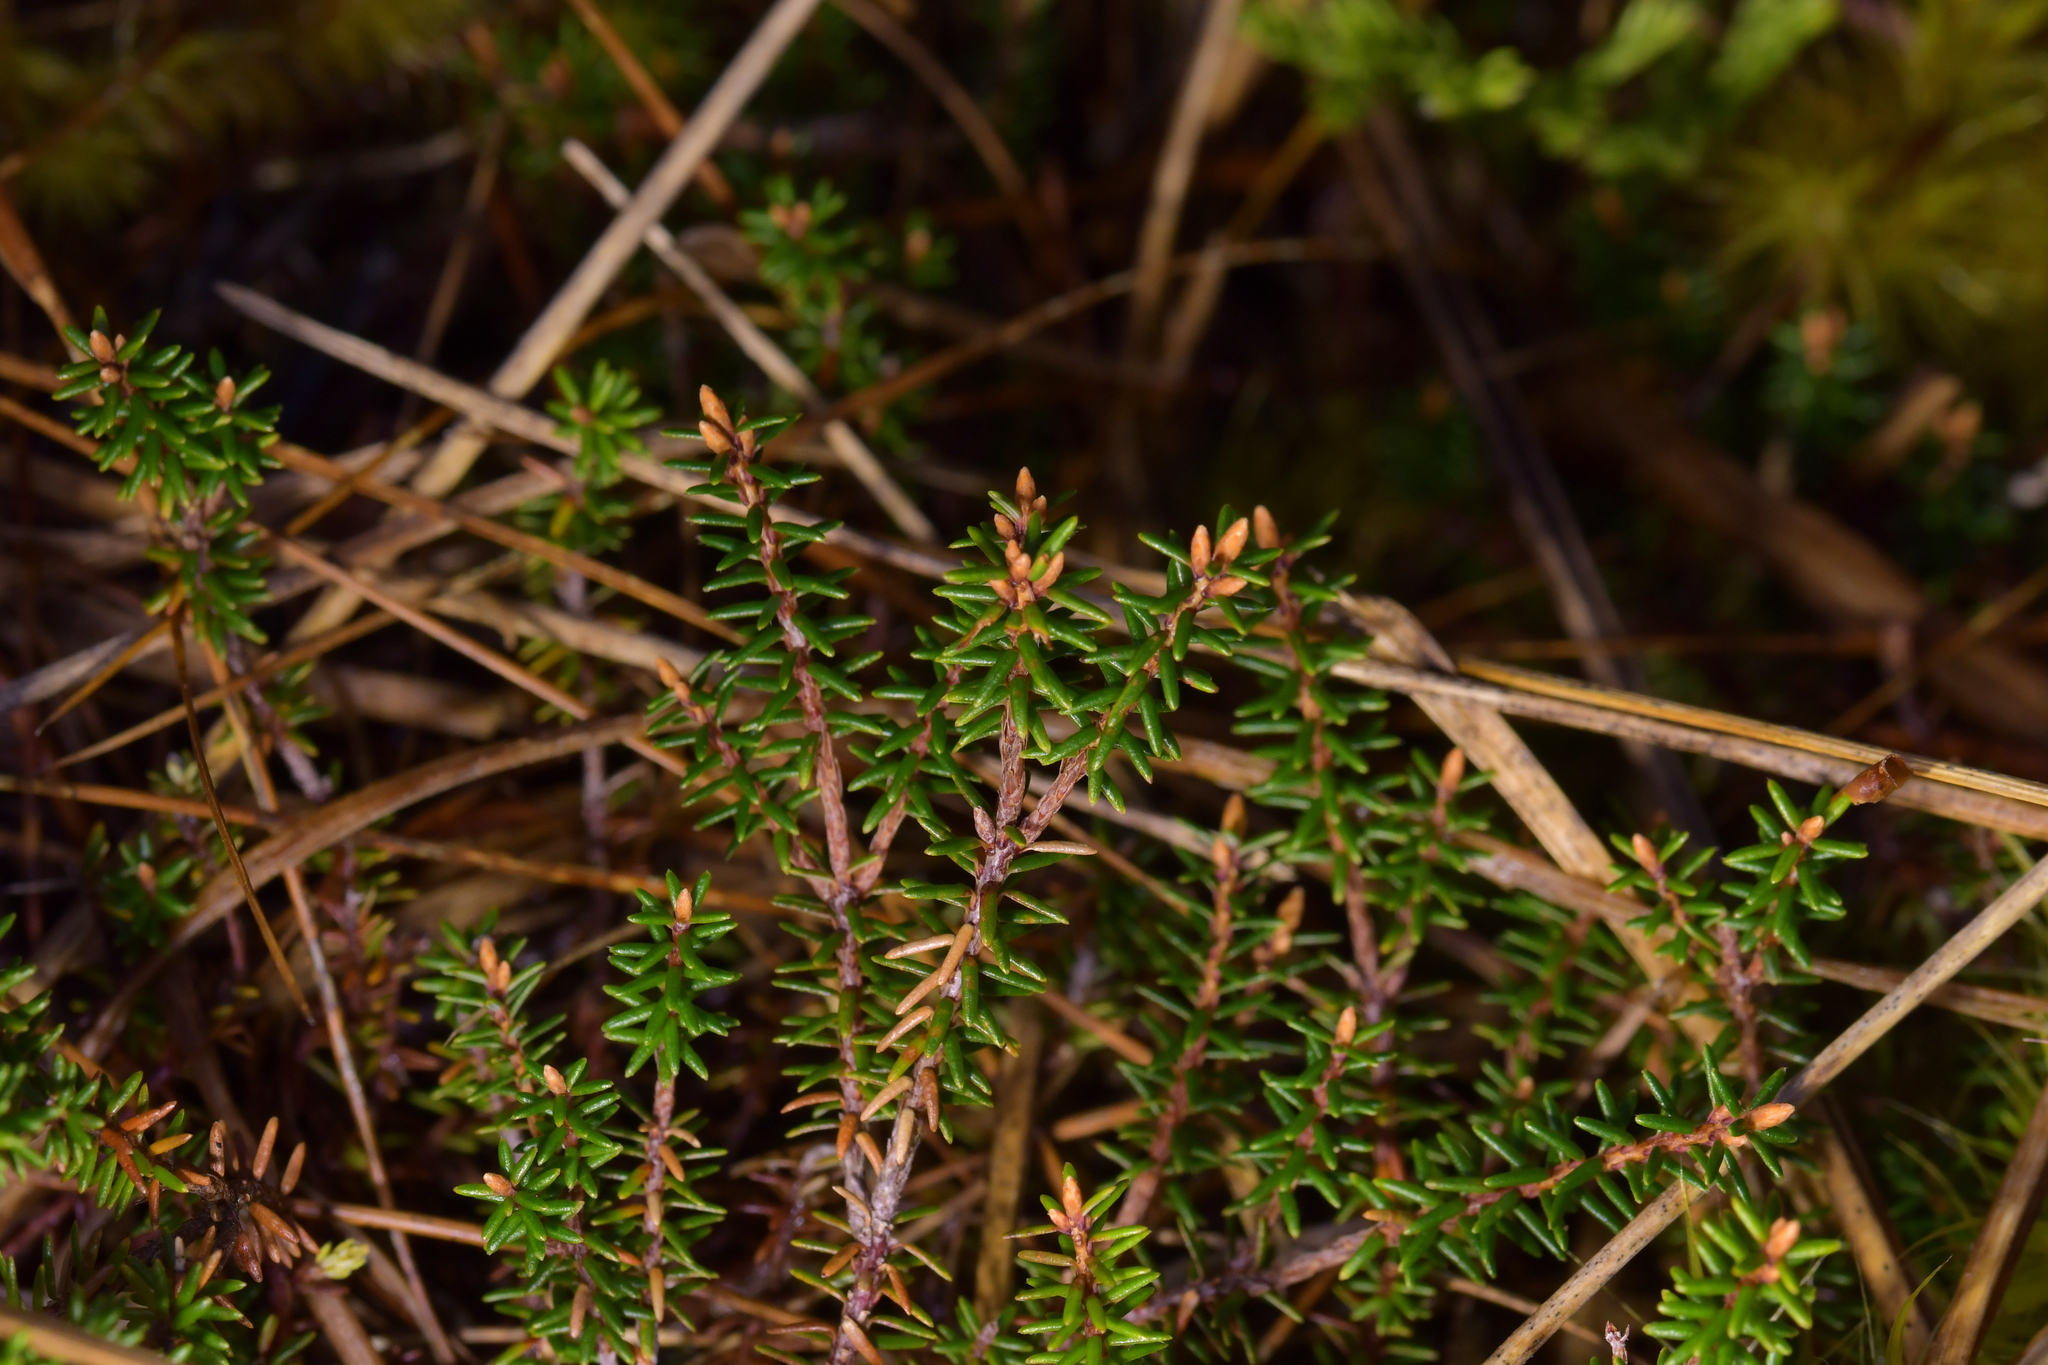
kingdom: Plantae
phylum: Tracheophyta
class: Magnoliopsida
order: Ericales
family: Ericaceae
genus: Androstoma
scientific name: Androstoma empetrifolia
